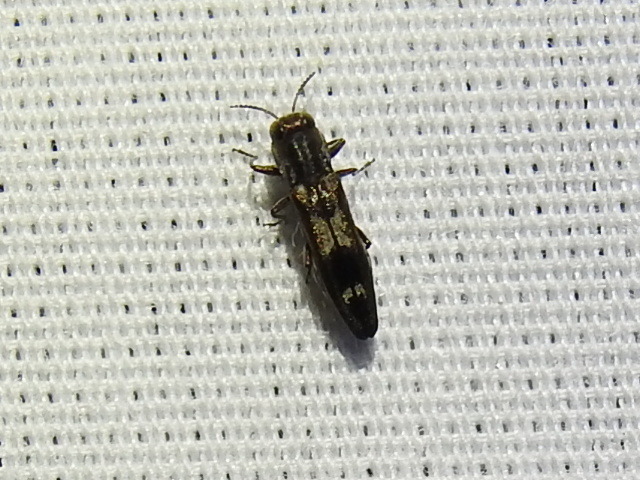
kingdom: Animalia
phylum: Arthropoda
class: Insecta
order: Coleoptera
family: Buprestidae
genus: Agrilus
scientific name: Agrilus acaciae
